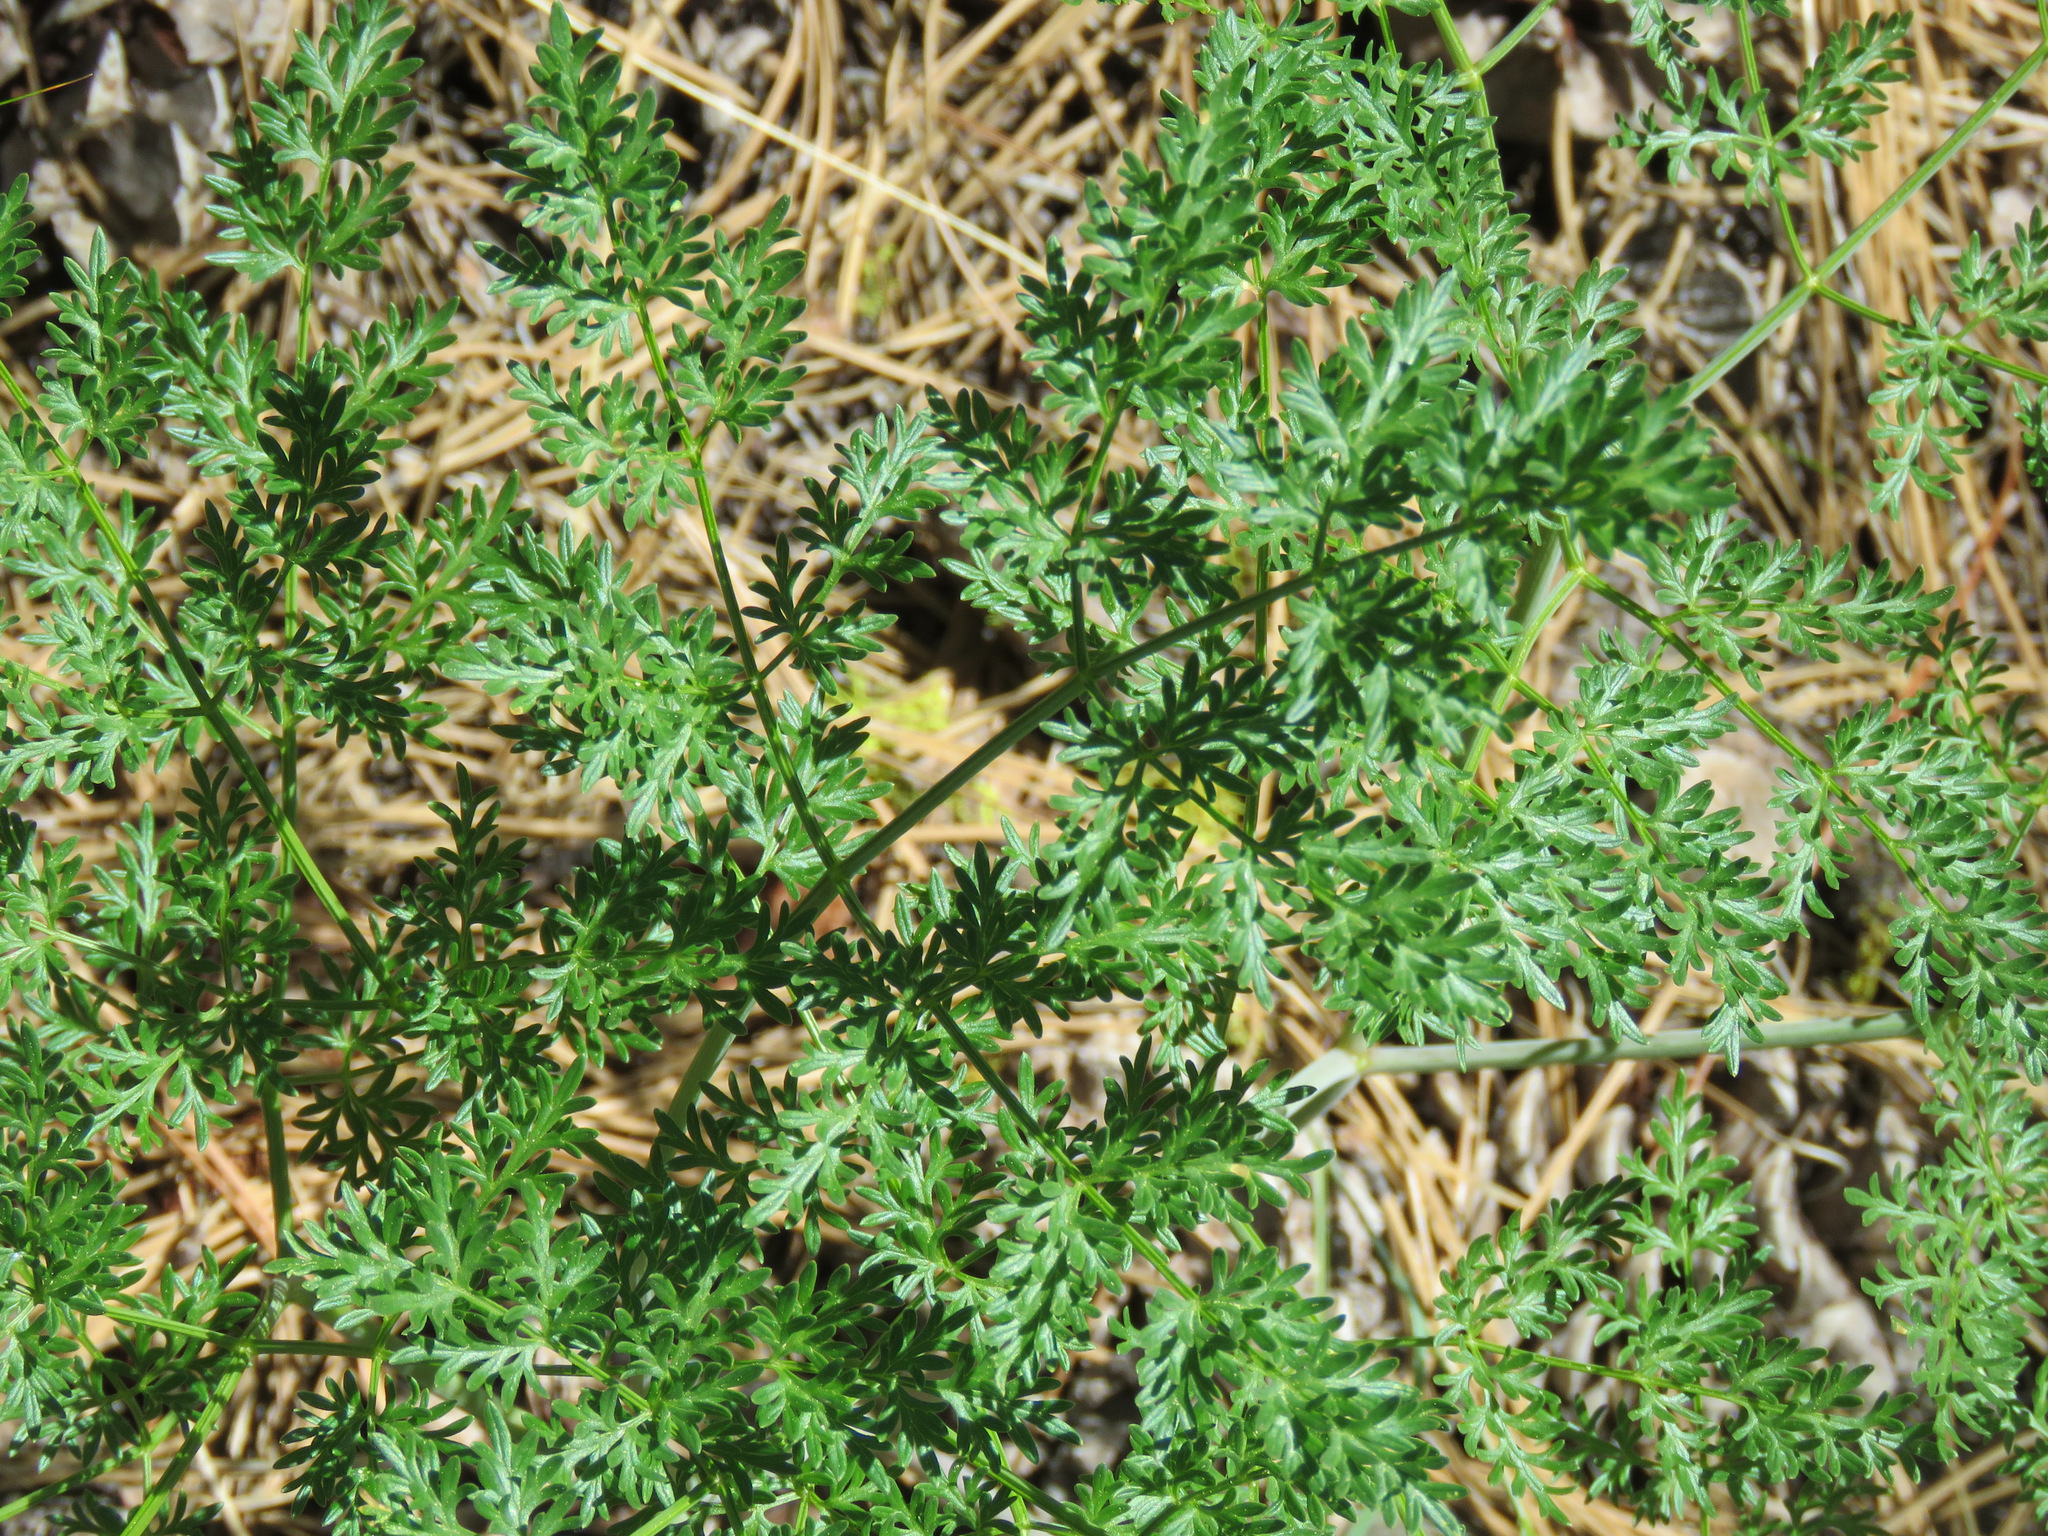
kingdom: Plantae
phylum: Tracheophyta
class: Magnoliopsida
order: Apiales
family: Apiaceae
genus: Lomatium
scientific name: Lomatium multifidum
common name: Carrot-leaved biscuitroot
